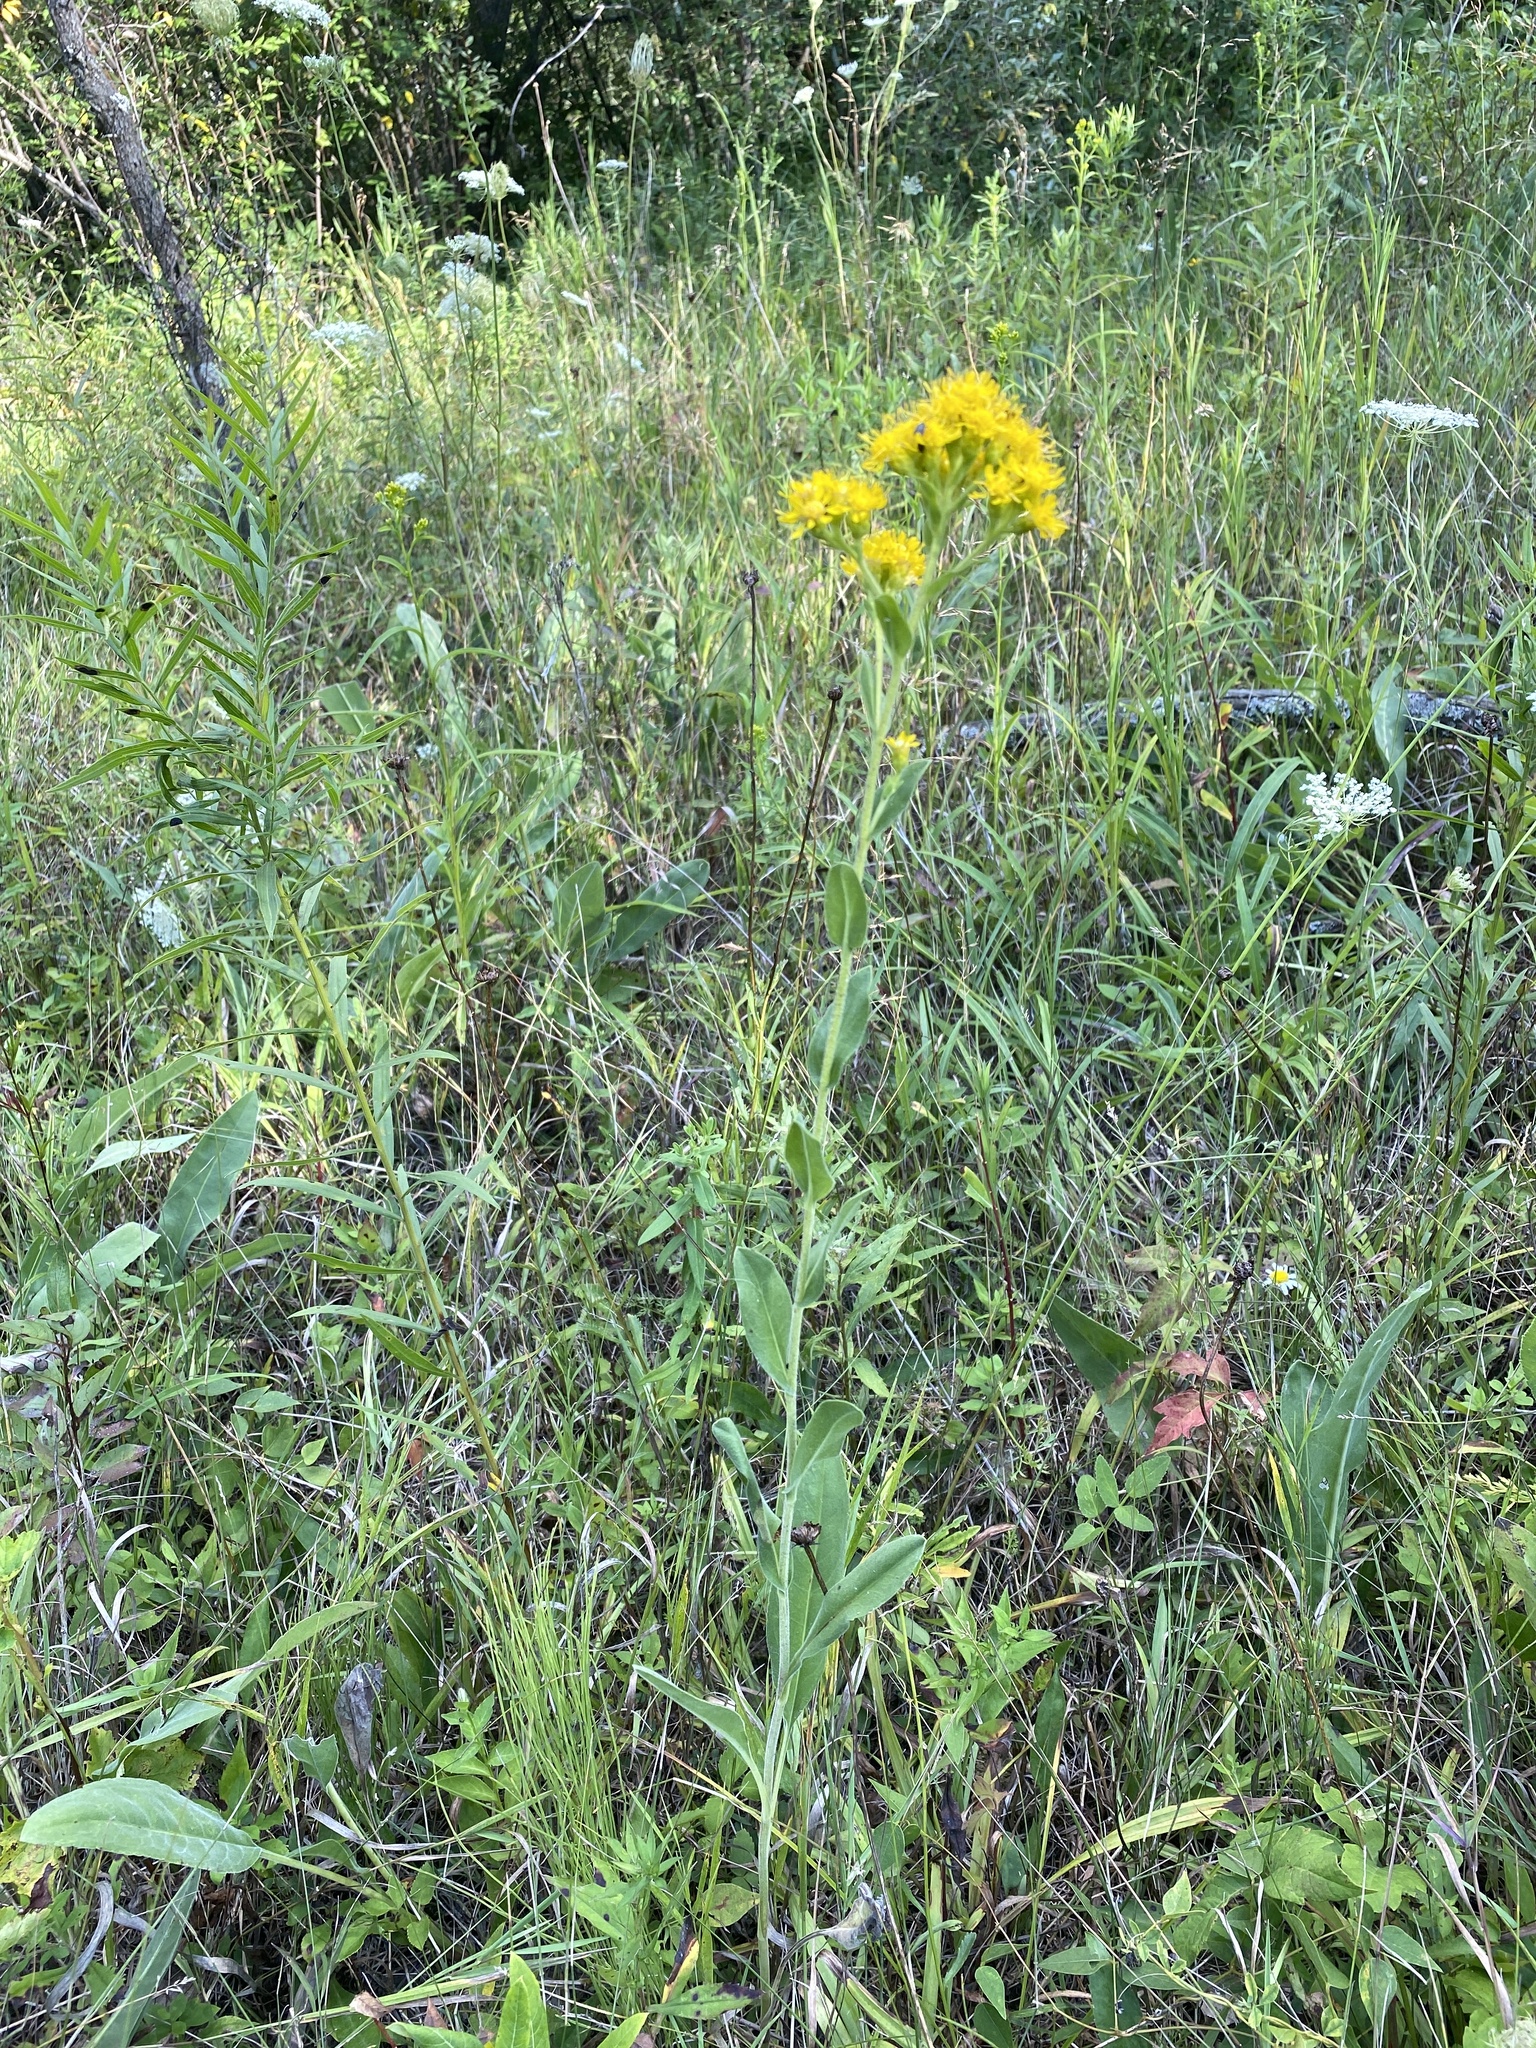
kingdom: Plantae
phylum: Tracheophyta
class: Magnoliopsida
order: Asterales
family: Asteraceae
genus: Solidago
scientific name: Solidago rigida
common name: Rigid goldenrod
